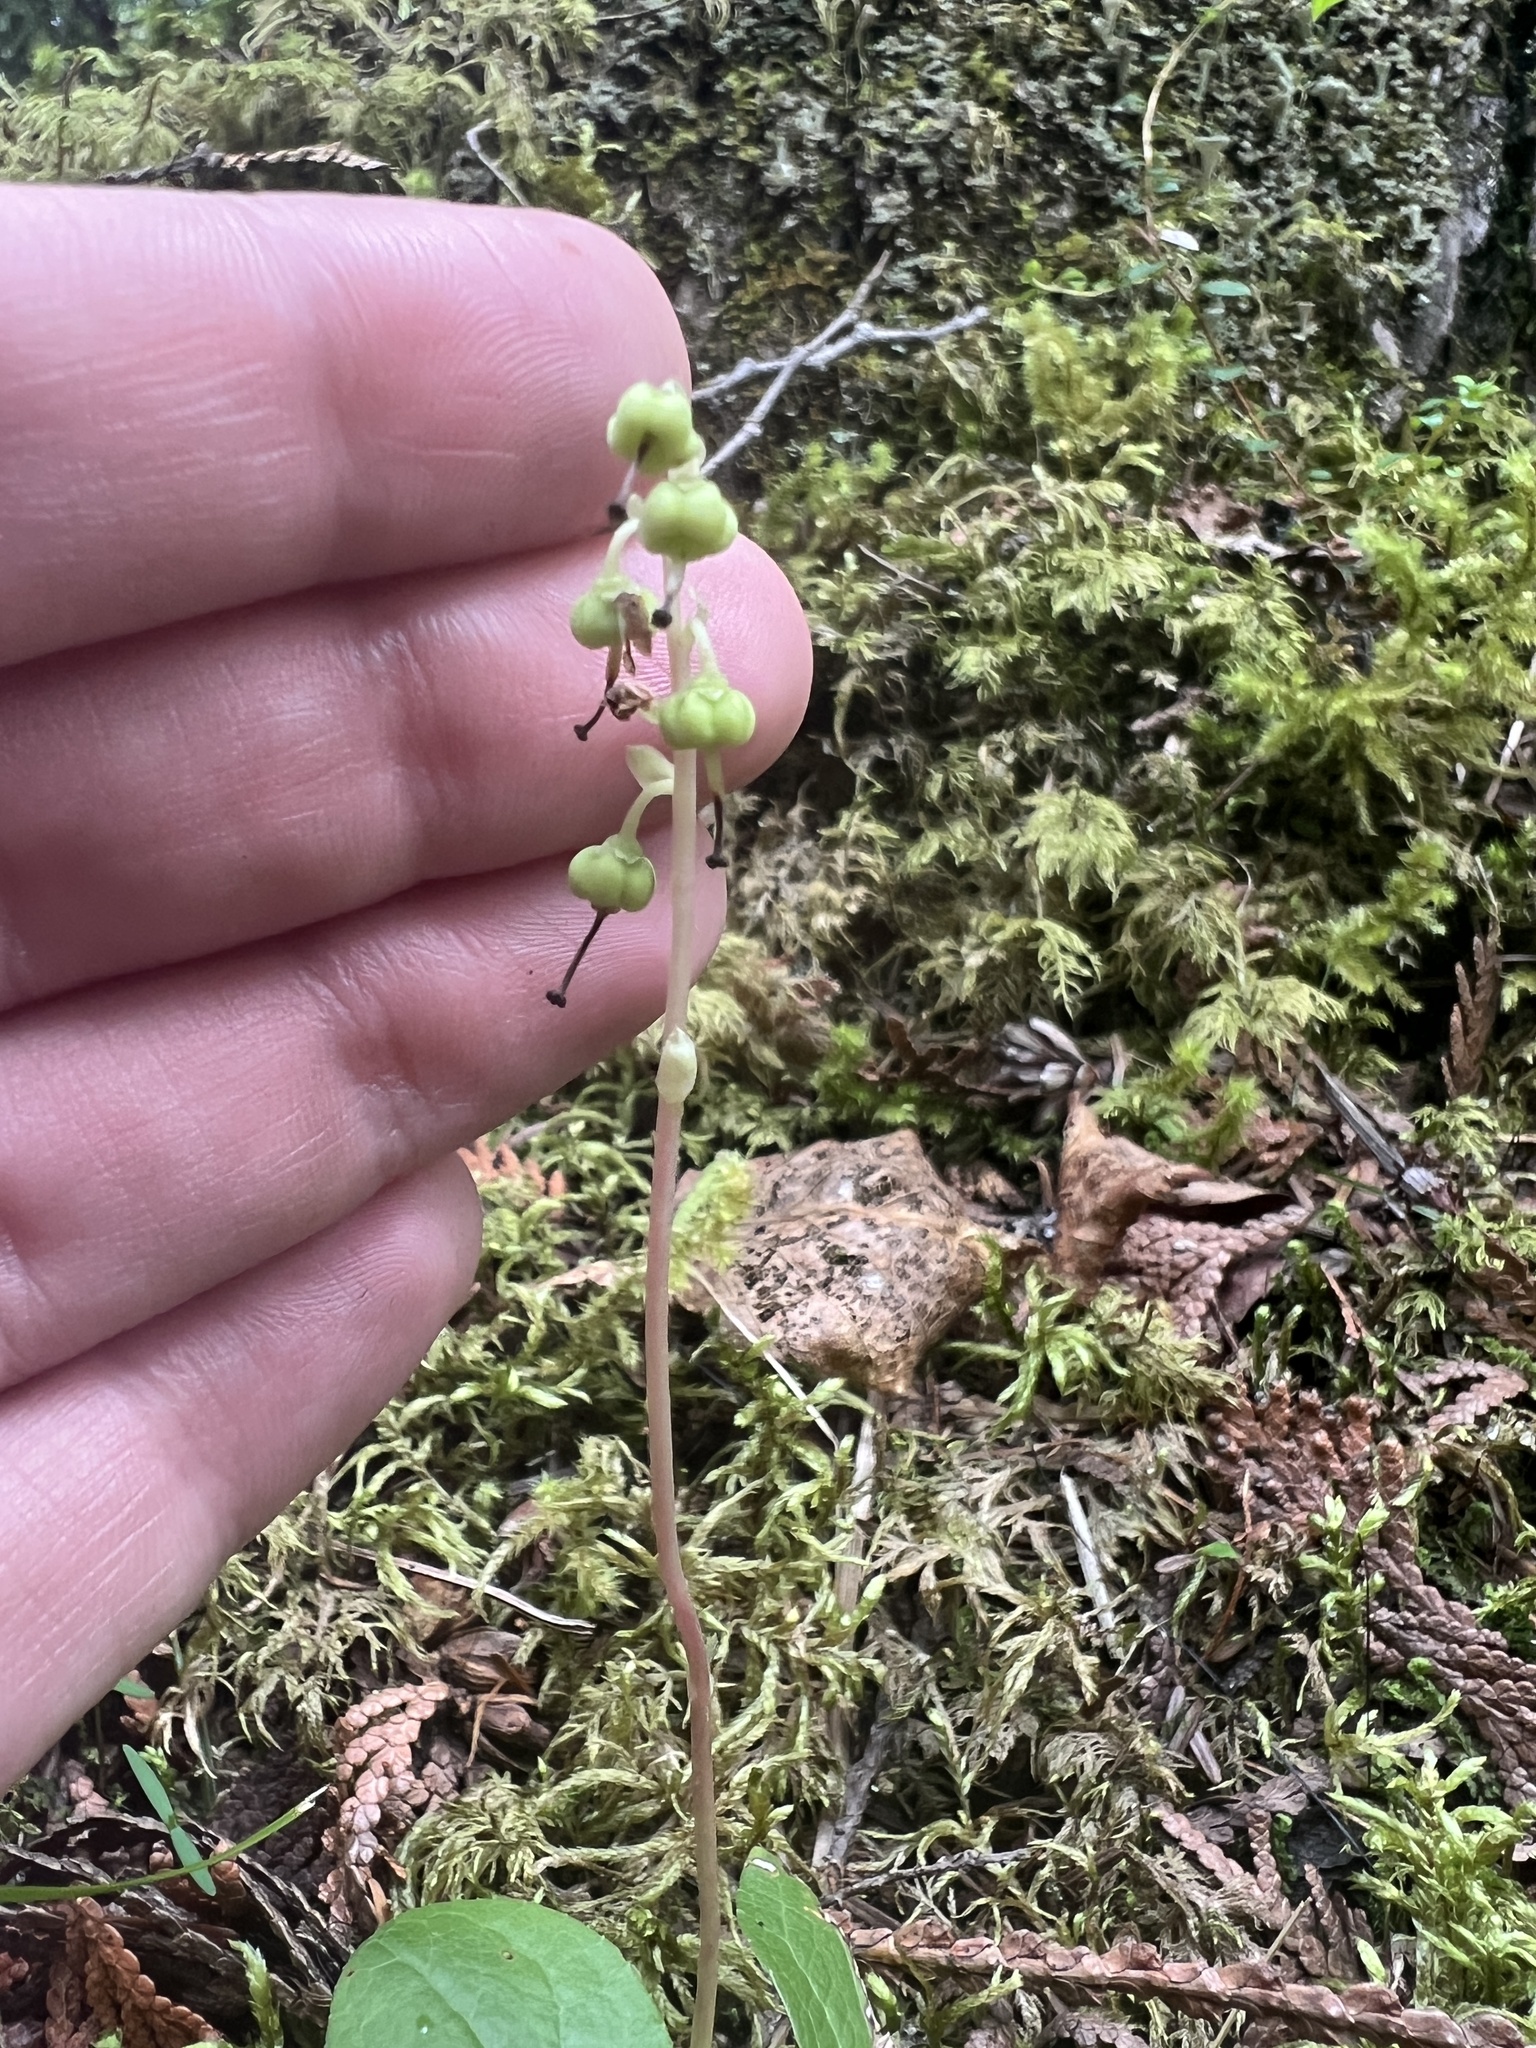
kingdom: Plantae
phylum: Tracheophyta
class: Magnoliopsida
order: Ericales
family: Ericaceae
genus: Orthilia
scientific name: Orthilia secunda
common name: One-sided orthilia
